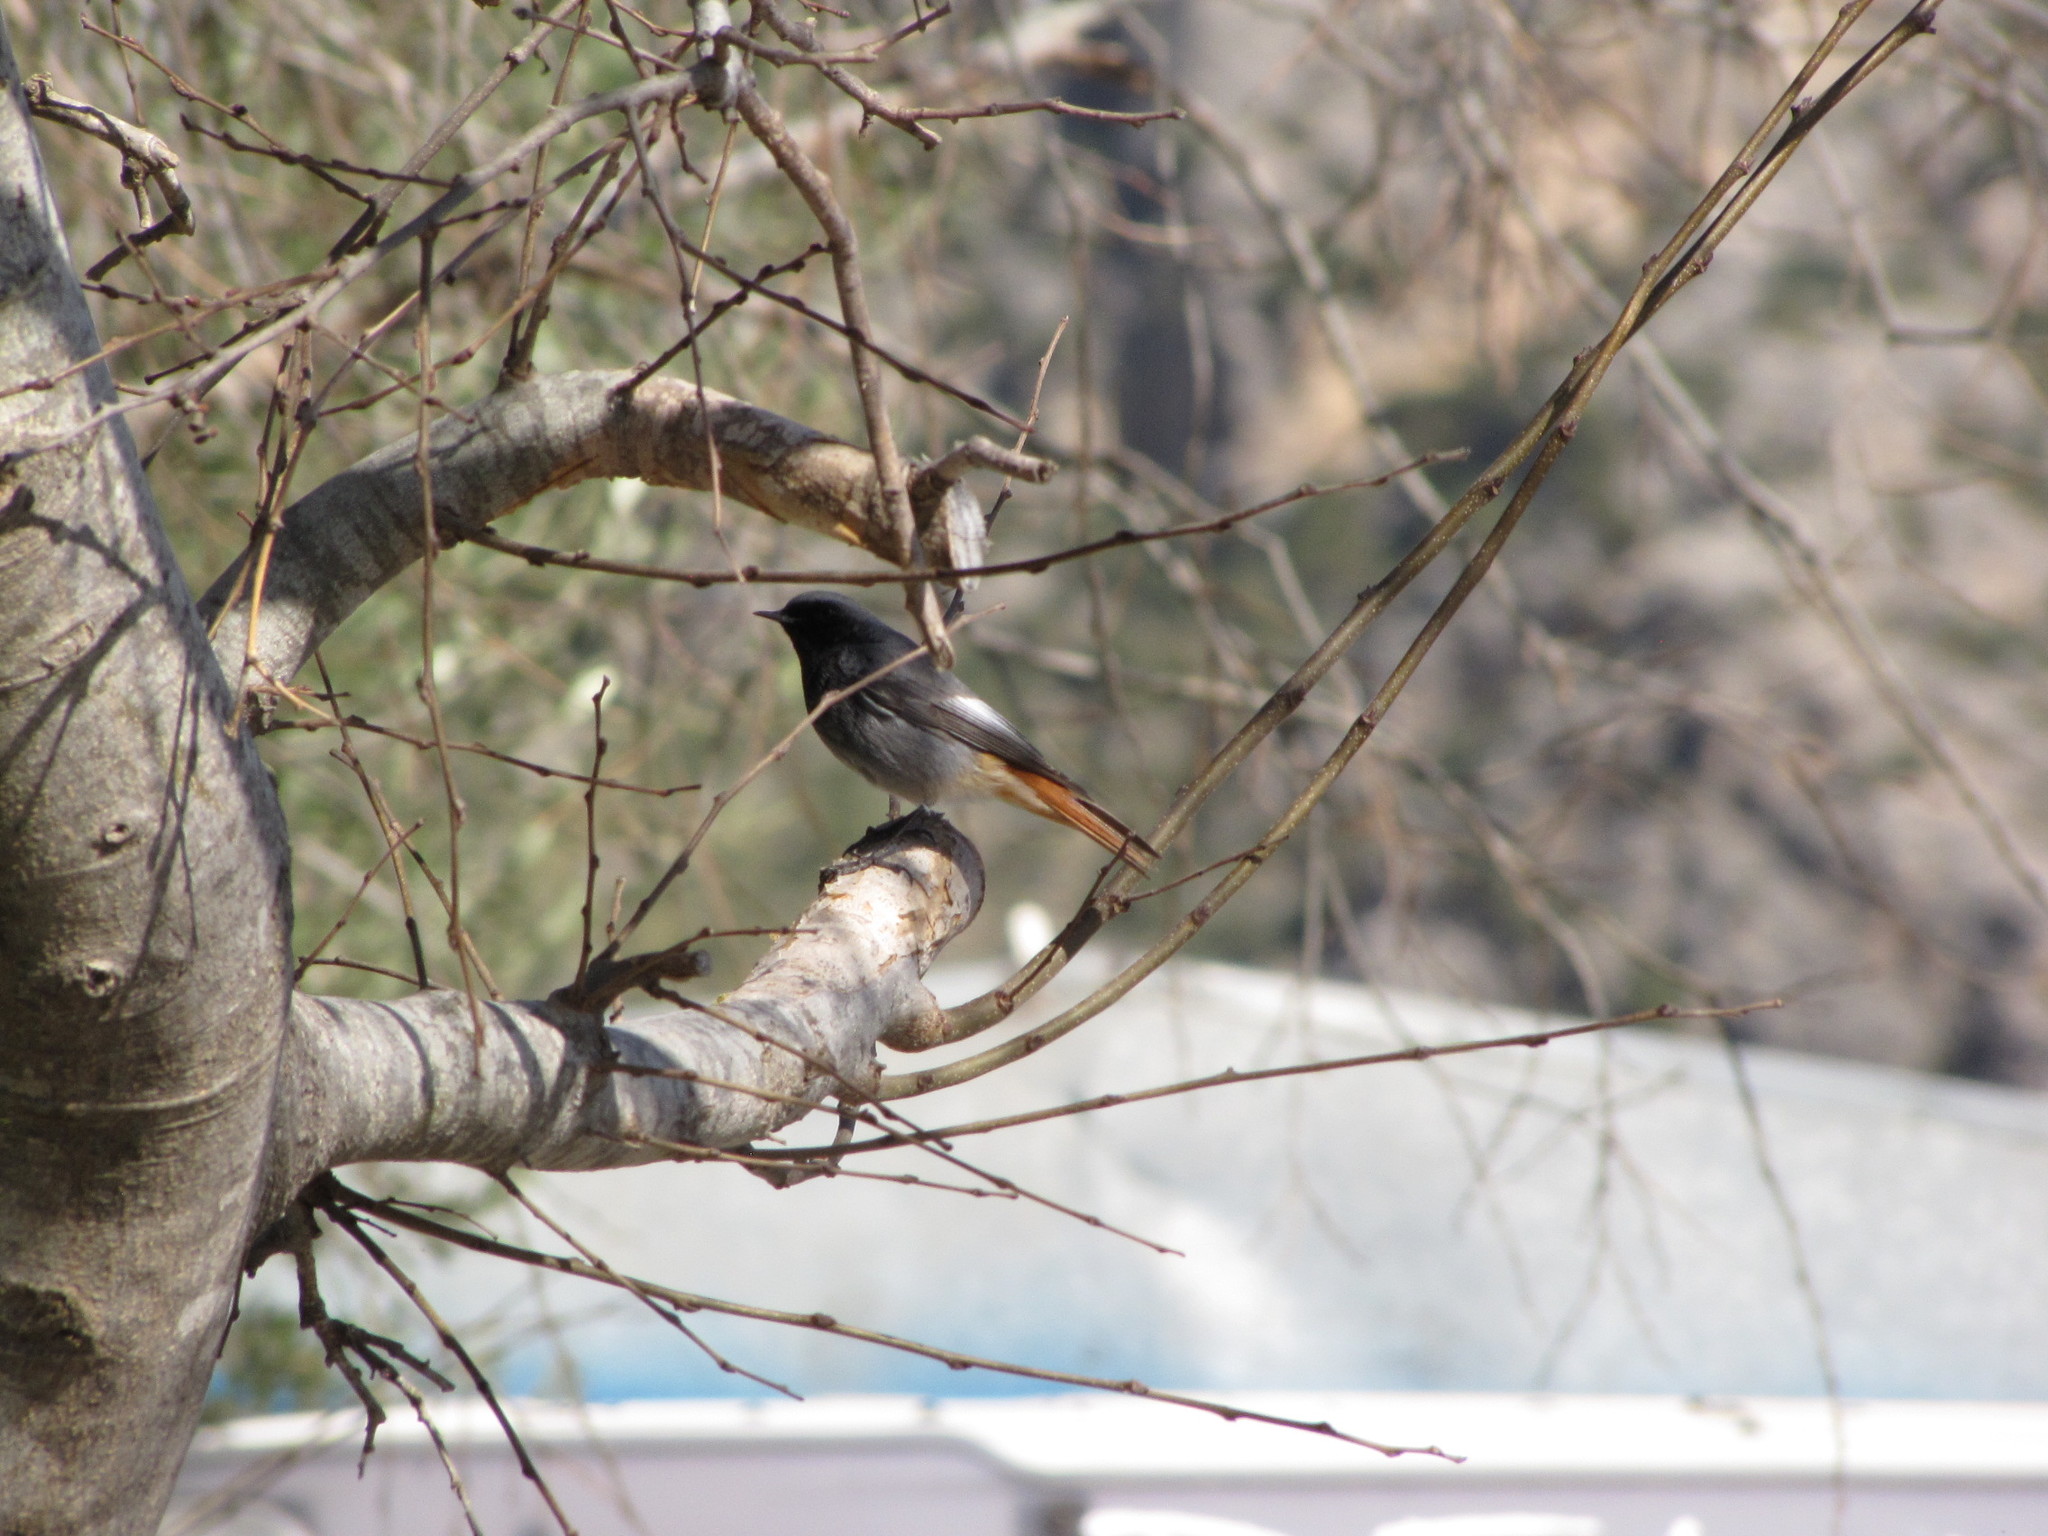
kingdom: Animalia
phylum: Chordata
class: Aves
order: Passeriformes
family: Muscicapidae
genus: Phoenicurus
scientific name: Phoenicurus ochruros
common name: Black redstart
